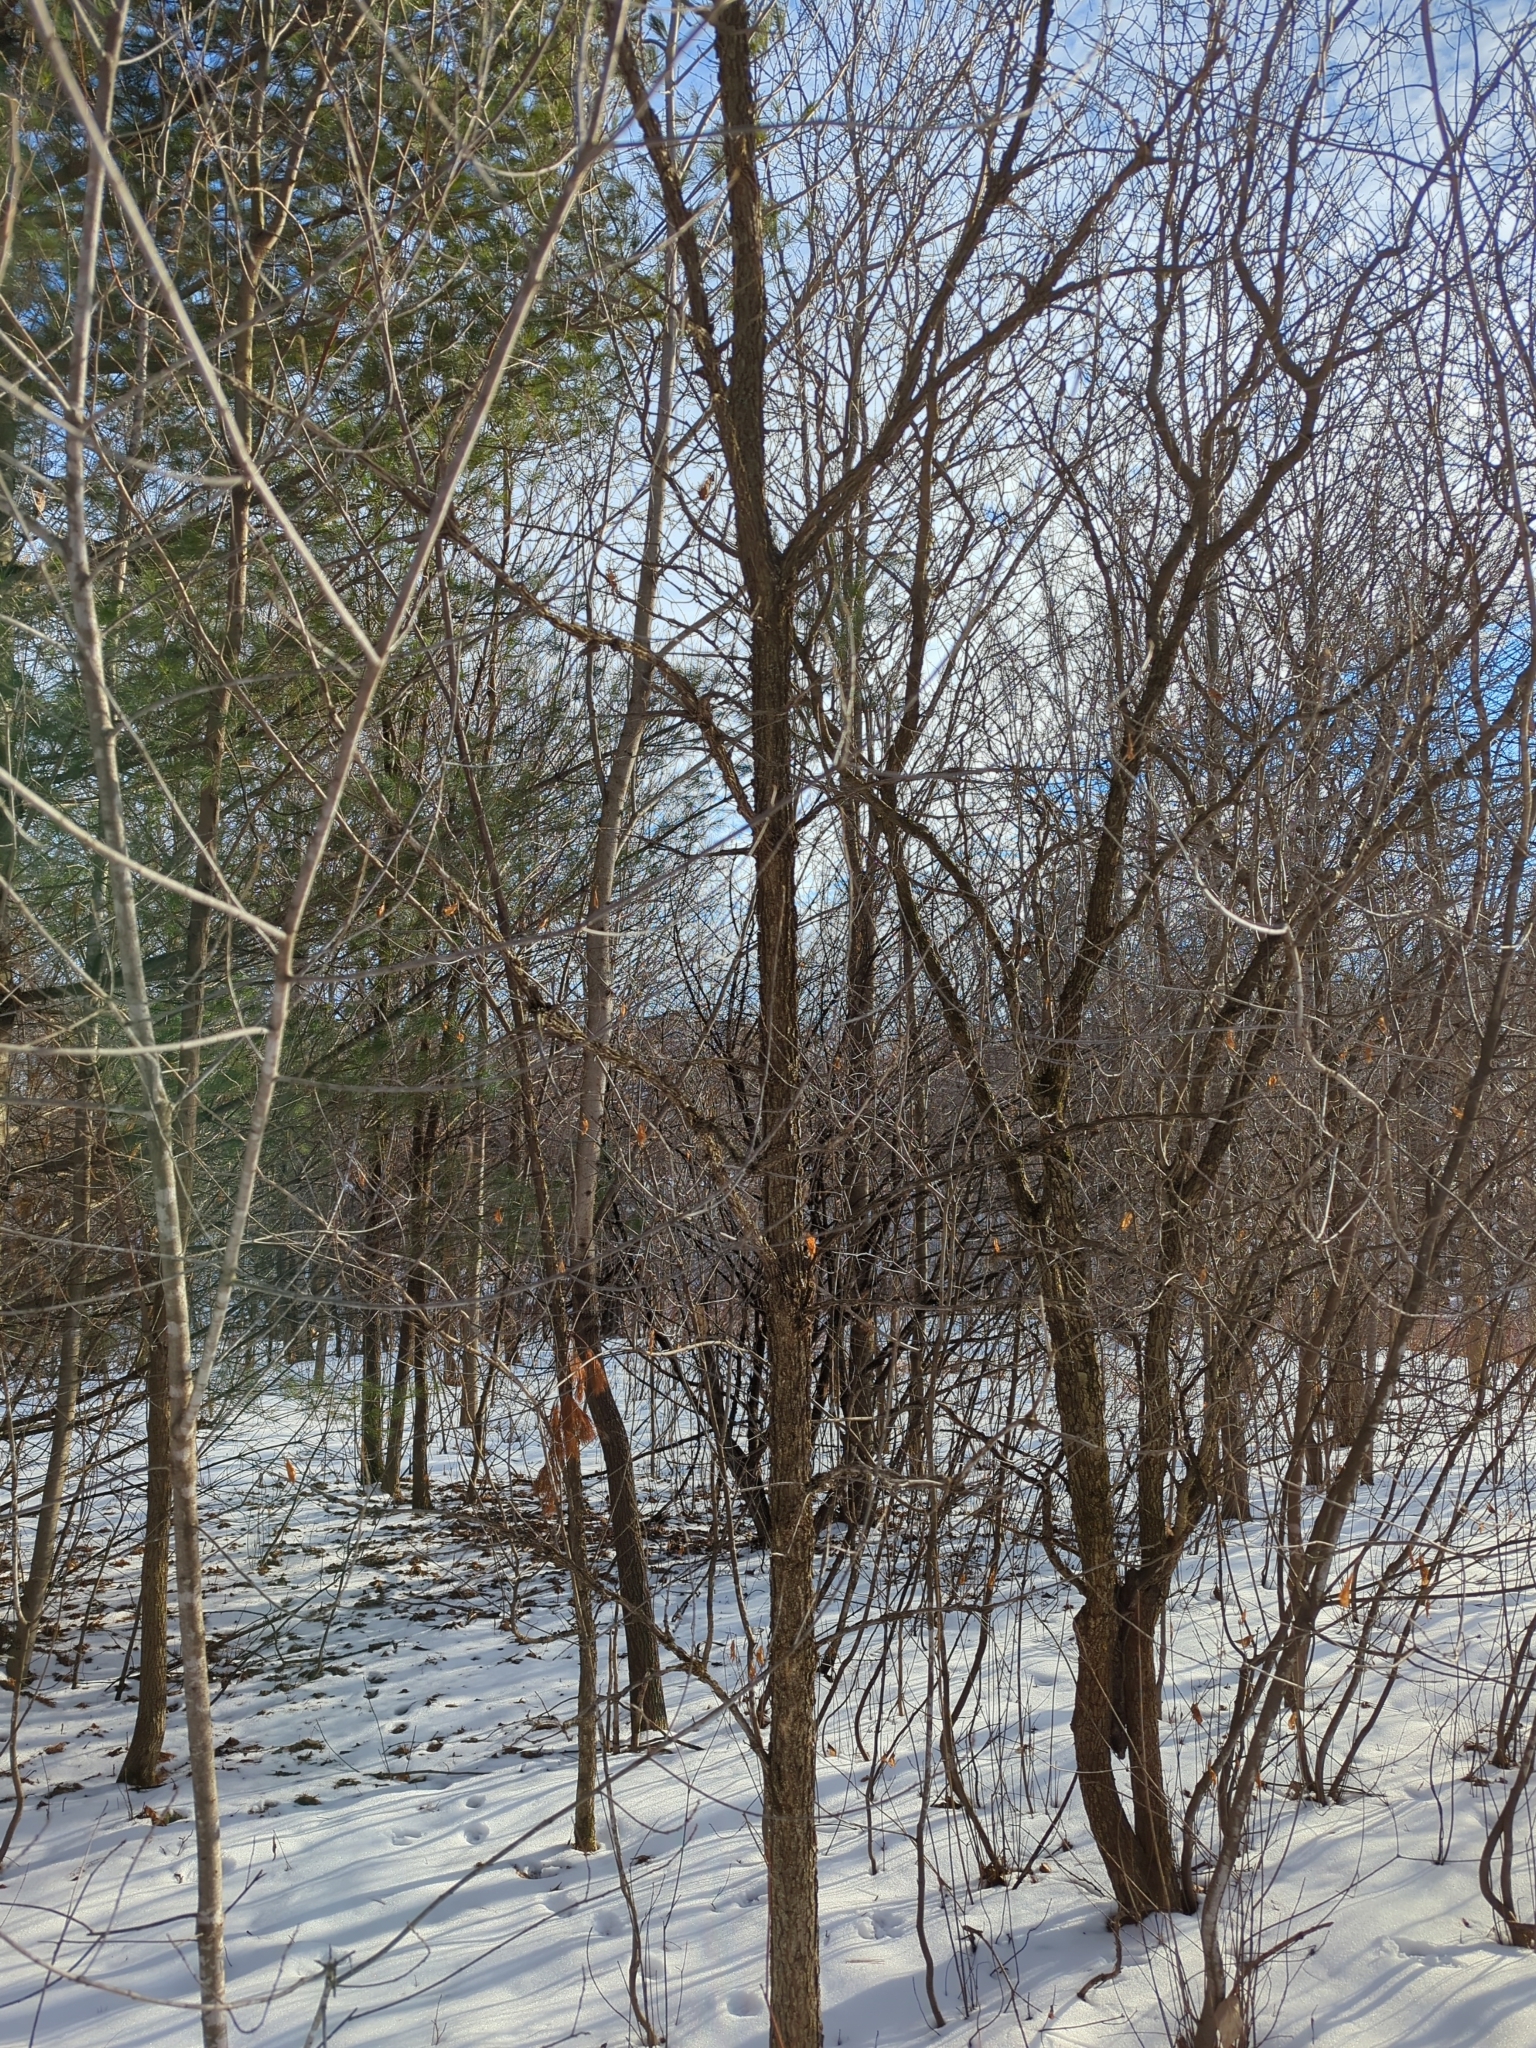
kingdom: Plantae
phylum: Tracheophyta
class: Magnoliopsida
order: Fagales
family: Fagaceae
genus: Quercus
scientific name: Quercus
